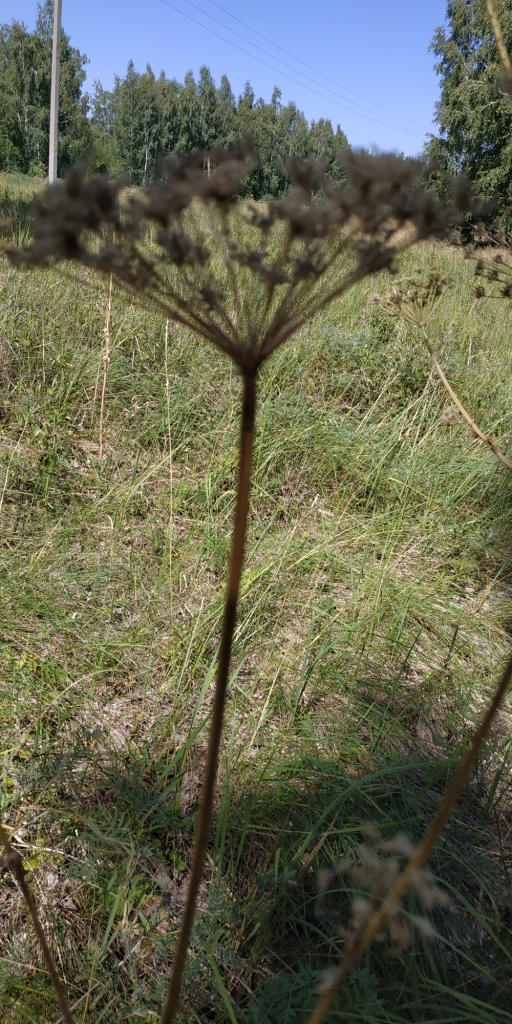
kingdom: Plantae
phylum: Tracheophyta
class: Magnoliopsida
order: Apiales
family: Apiaceae
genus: Seseli
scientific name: Seseli libanotis
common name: Mooncarrot
